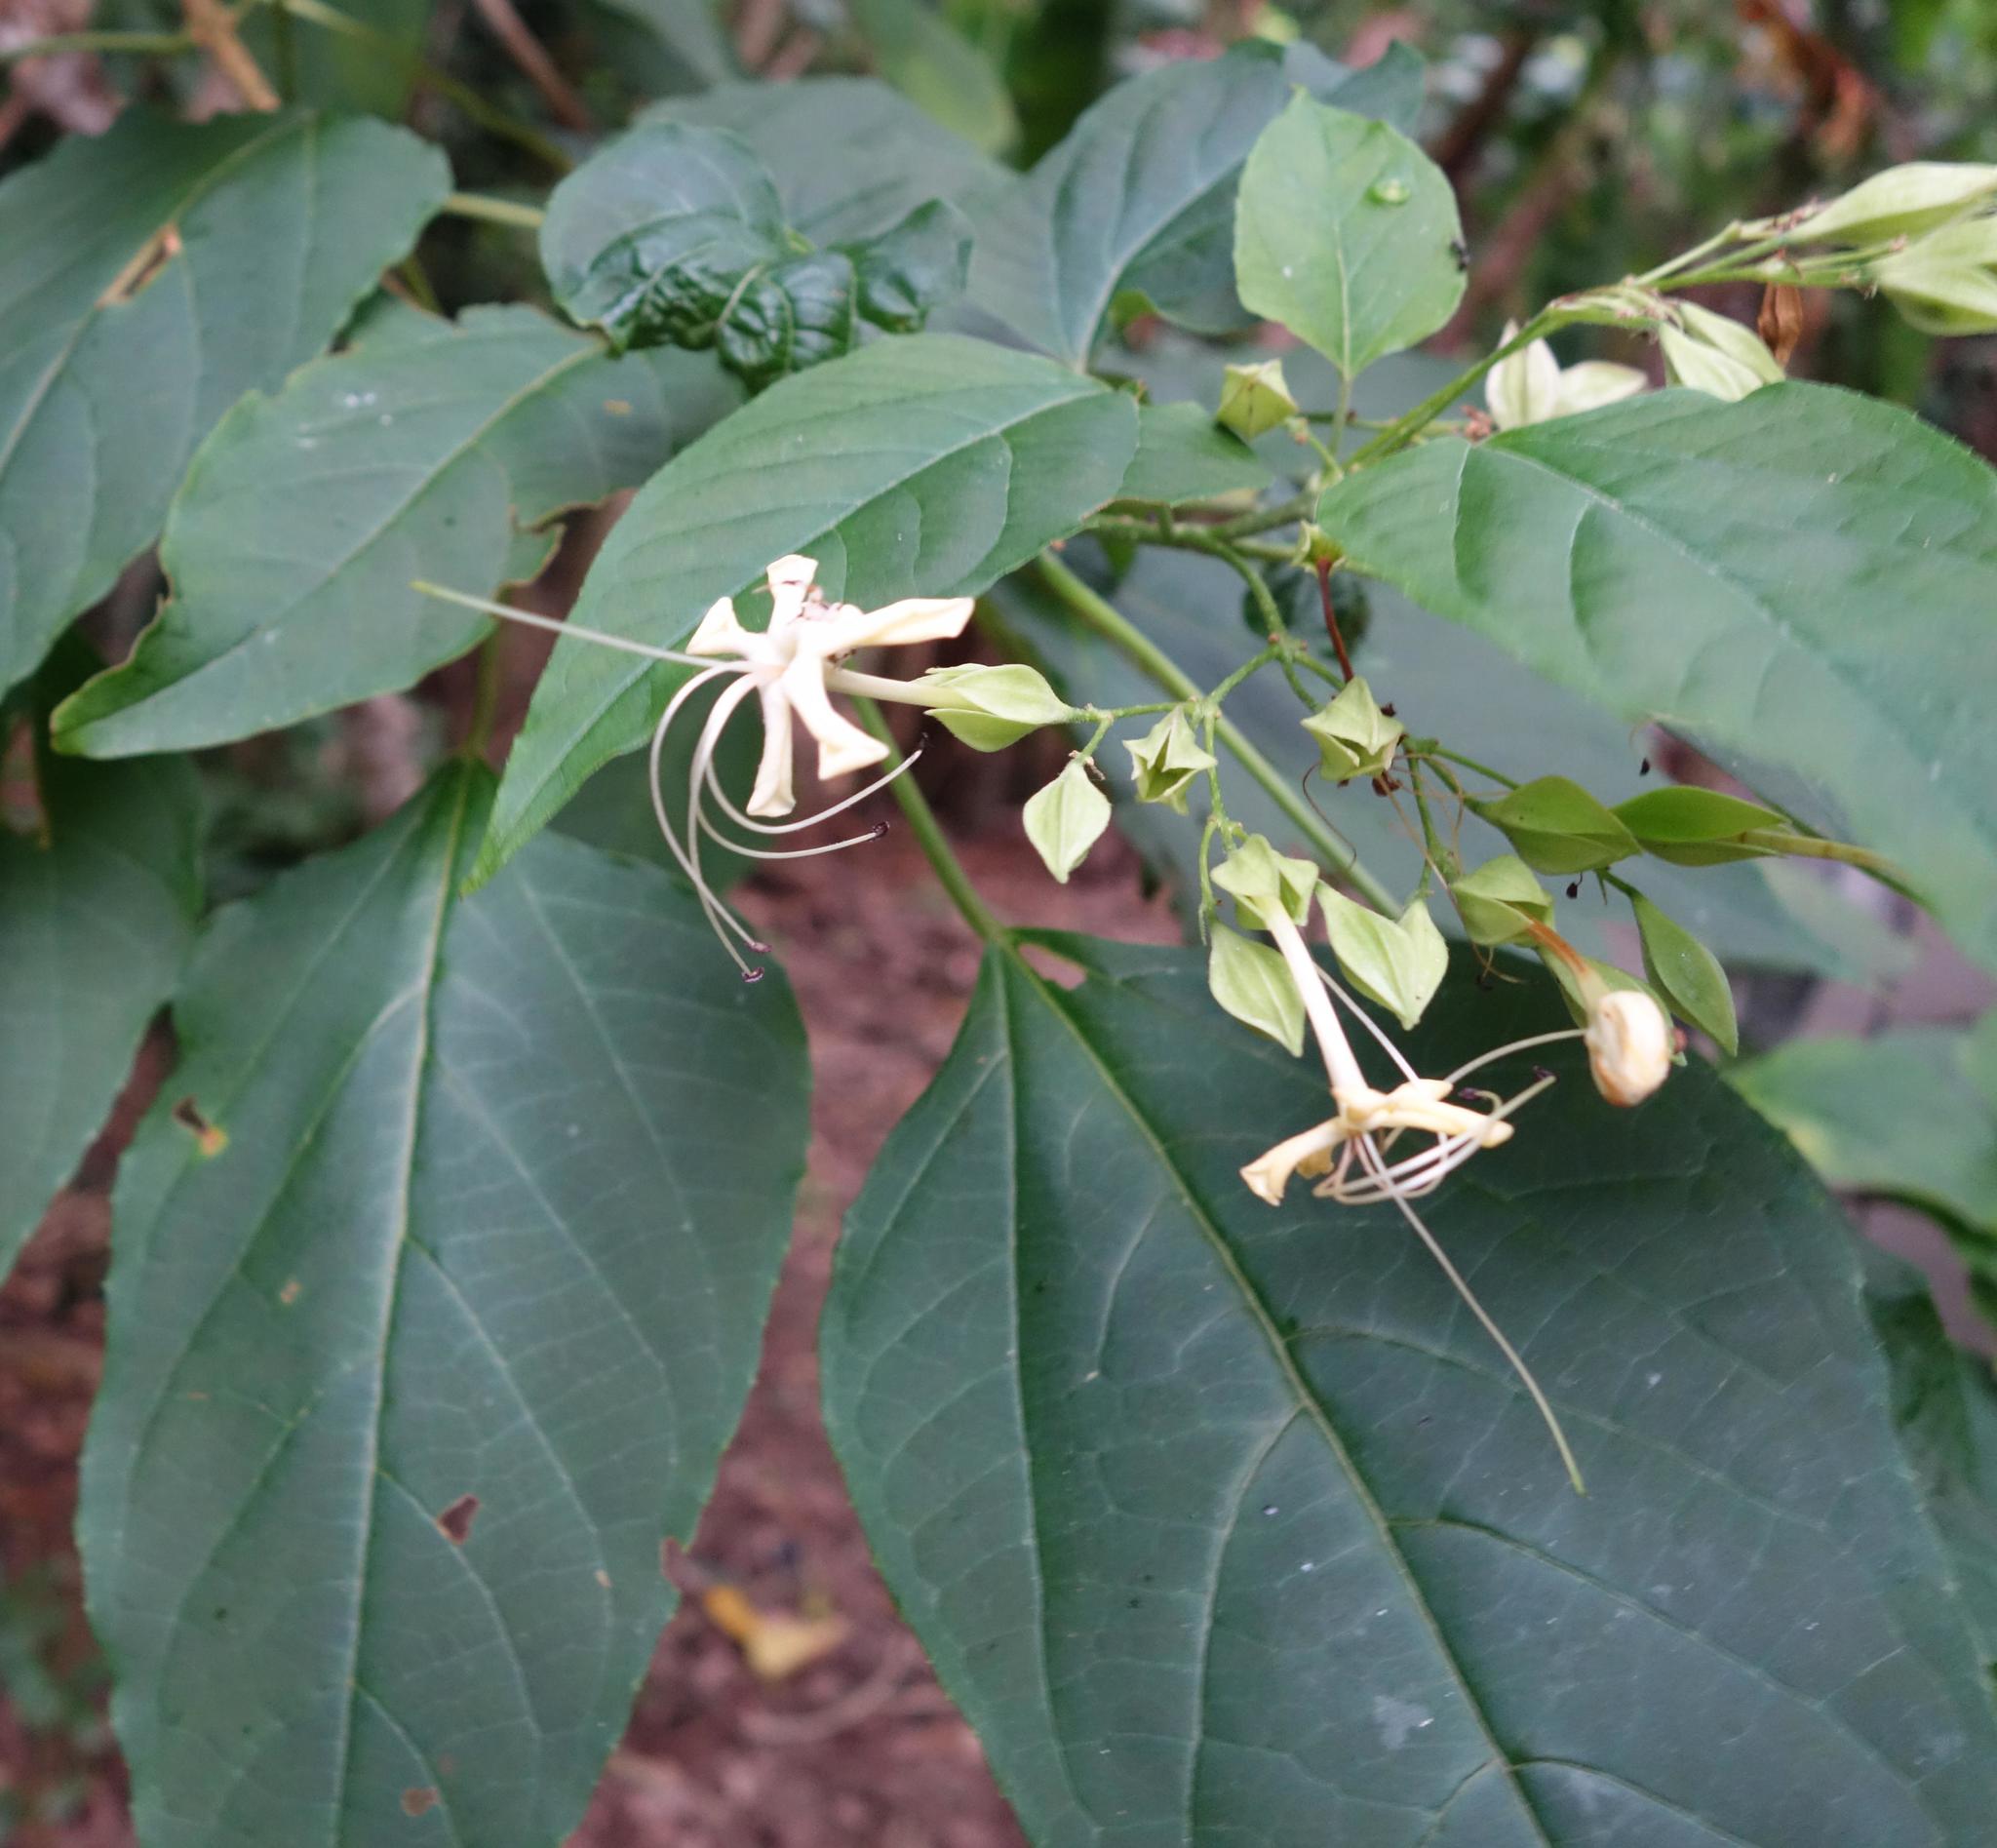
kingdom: Plantae
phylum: Tracheophyta
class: Magnoliopsida
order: Lamiales
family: Lamiaceae
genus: Clerodendrum
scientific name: Clerodendrum trichotomum
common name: Harlequin glorybower
